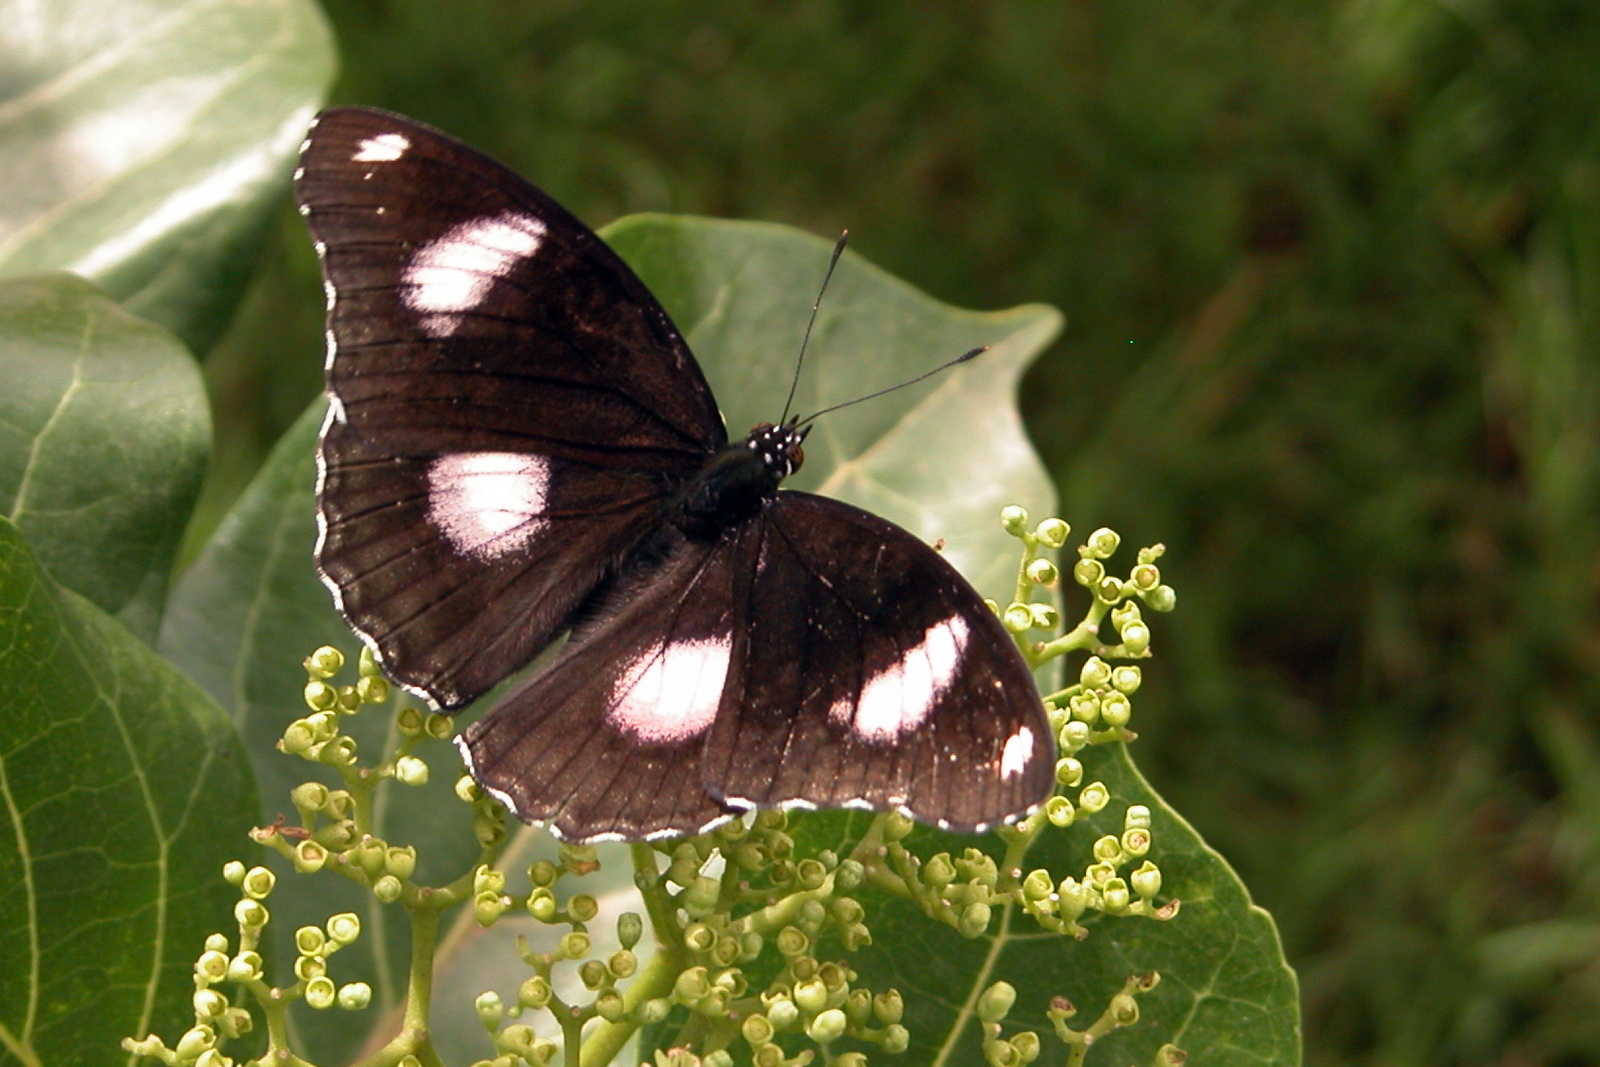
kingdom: Animalia
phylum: Arthropoda
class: Insecta
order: Lepidoptera
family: Nymphalidae
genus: Hypolimnas
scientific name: Hypolimnas bolina
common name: Great eggfly
